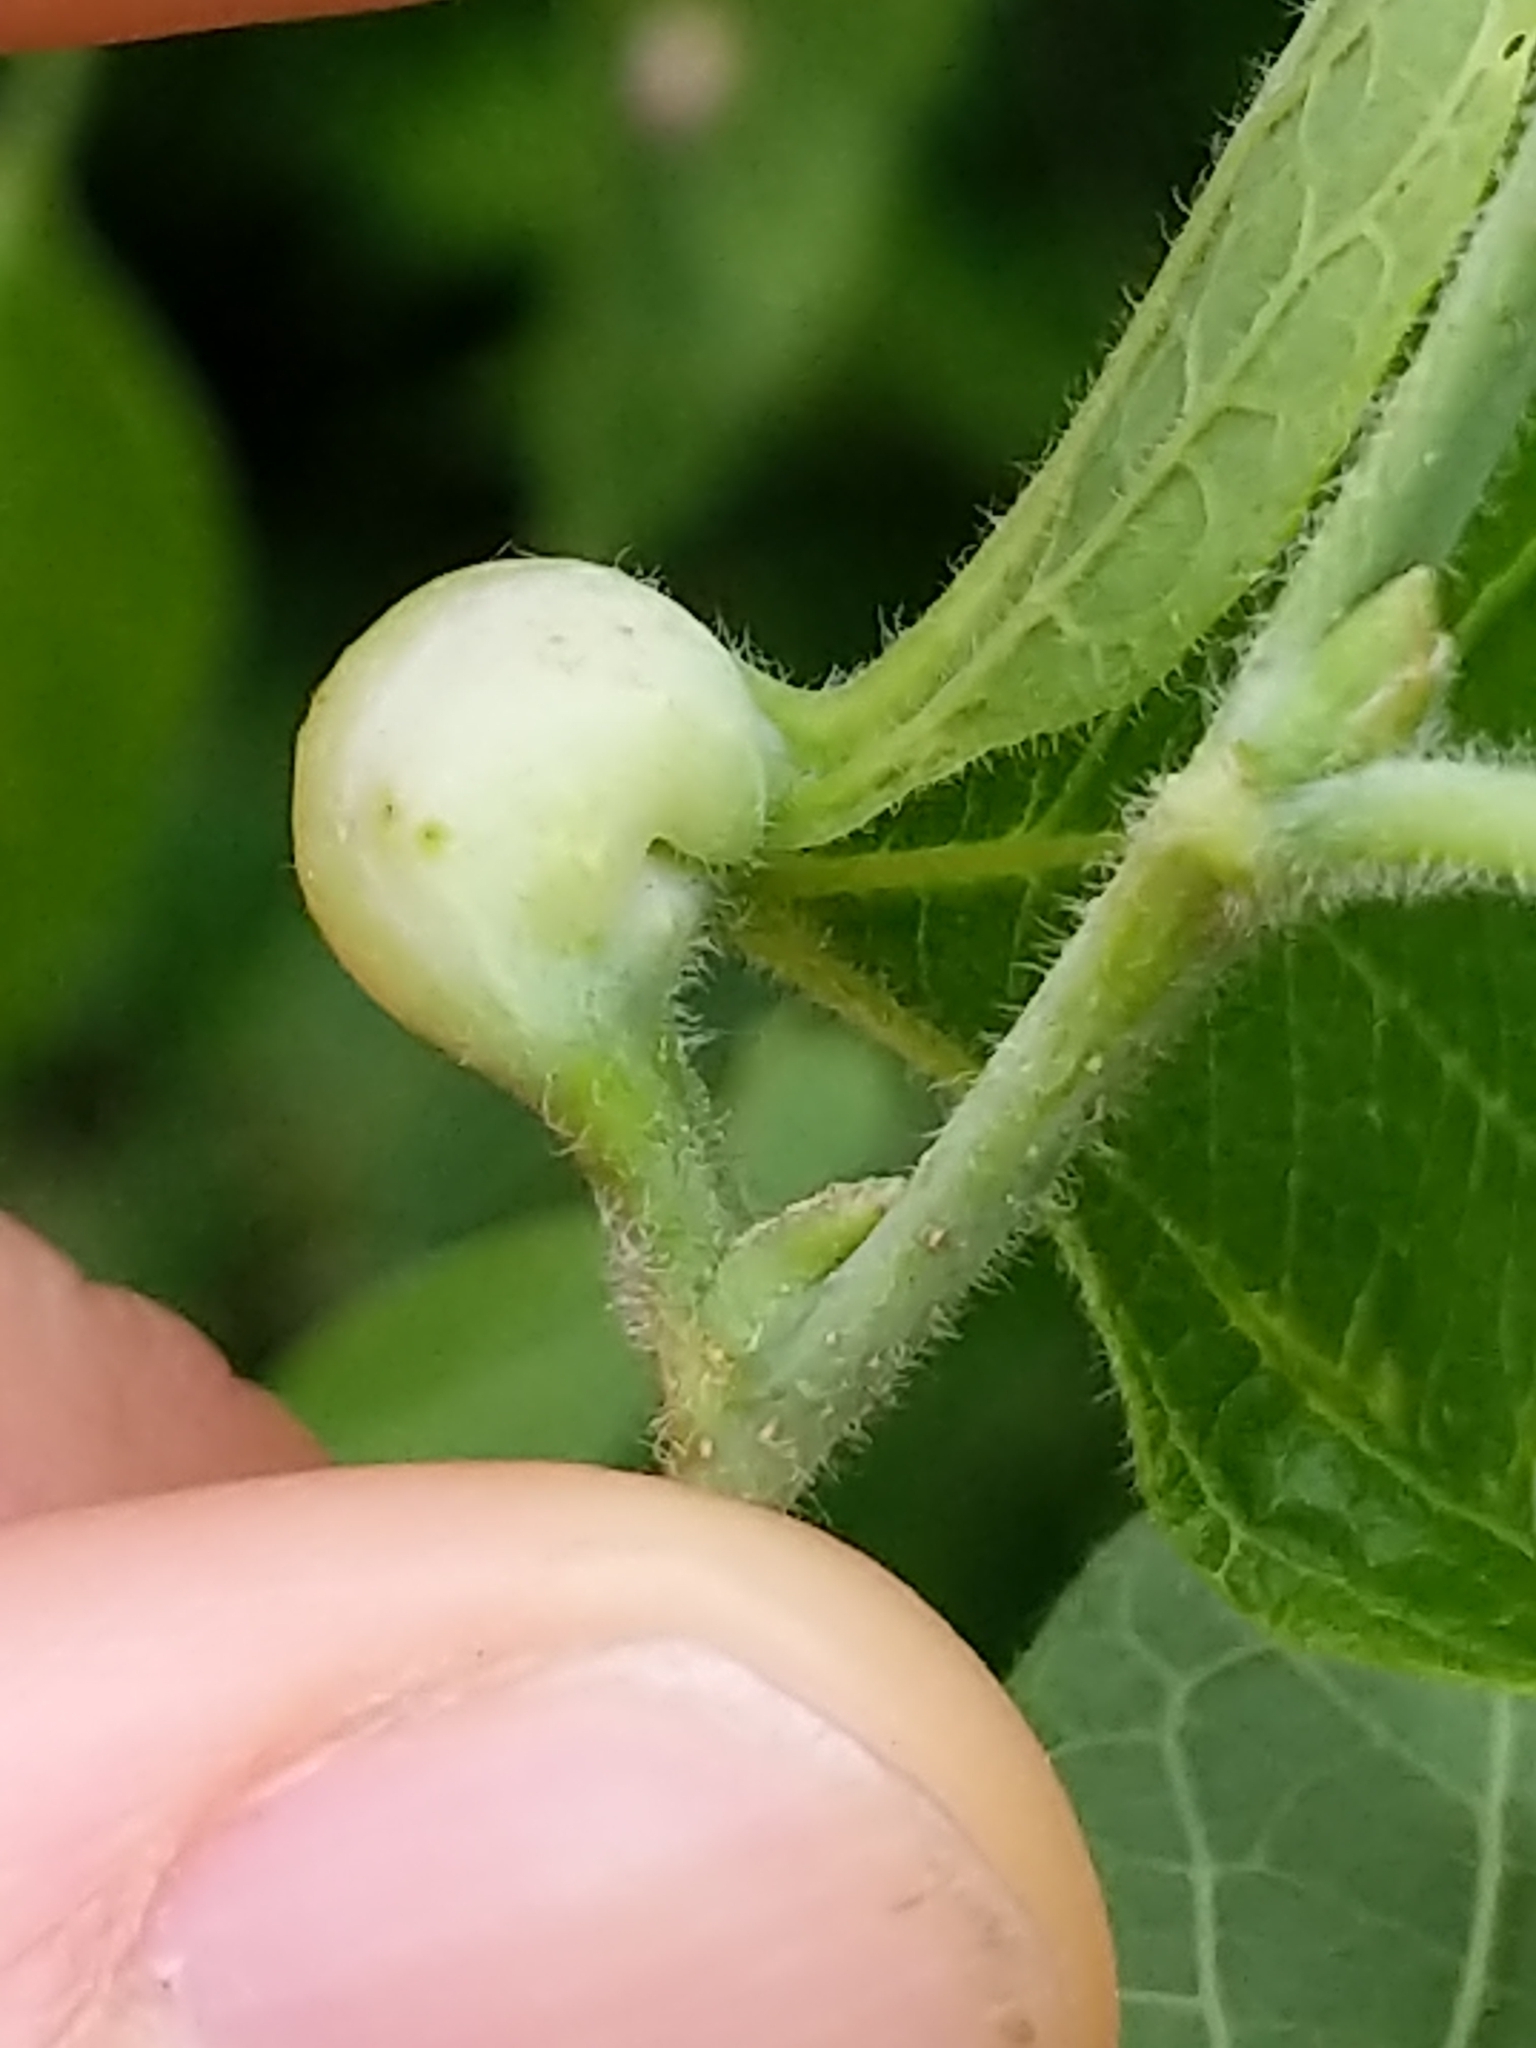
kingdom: Animalia
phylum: Arthropoda
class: Insecta
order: Hemiptera
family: Aphalaridae
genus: Pachypsylla
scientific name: Pachypsylla venusta
